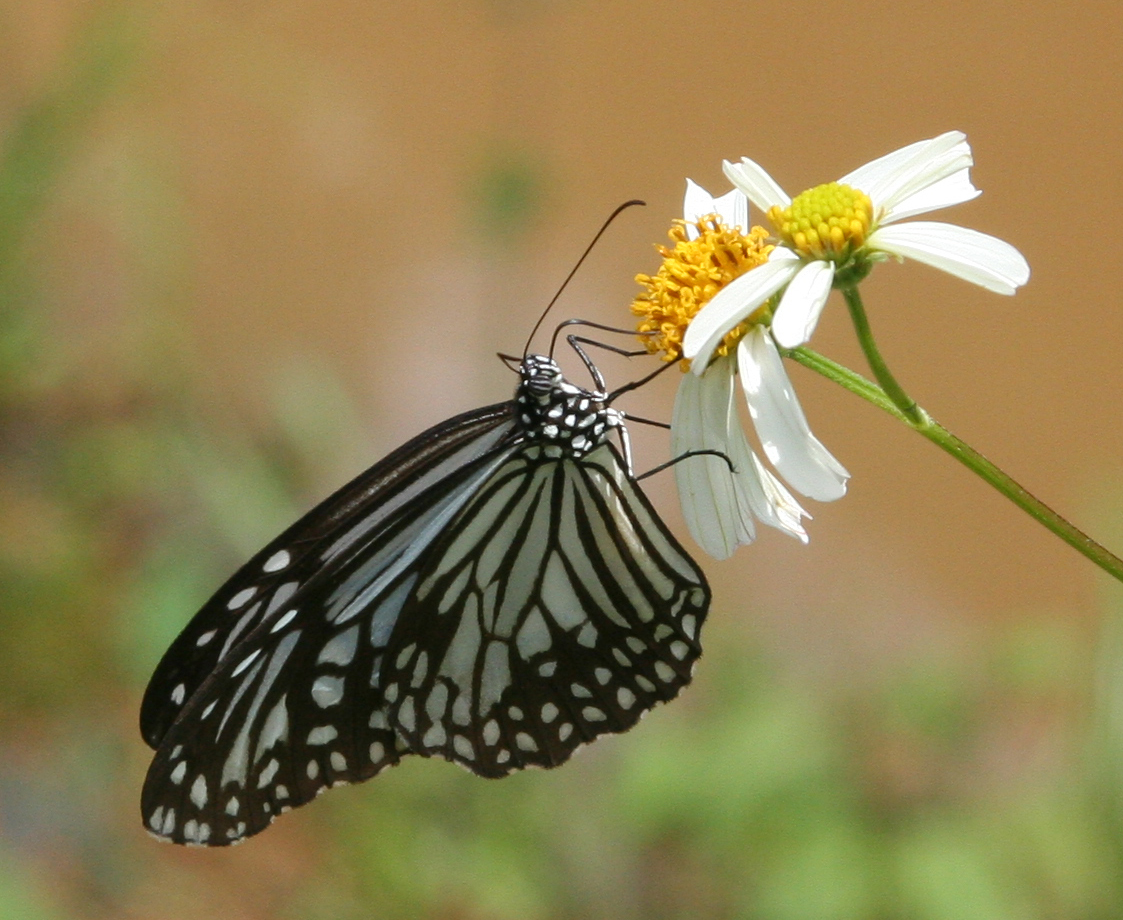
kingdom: Animalia
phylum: Arthropoda
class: Insecta
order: Lepidoptera
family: Nymphalidae
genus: Parantica
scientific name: Parantica aglea
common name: Glassy tiger
